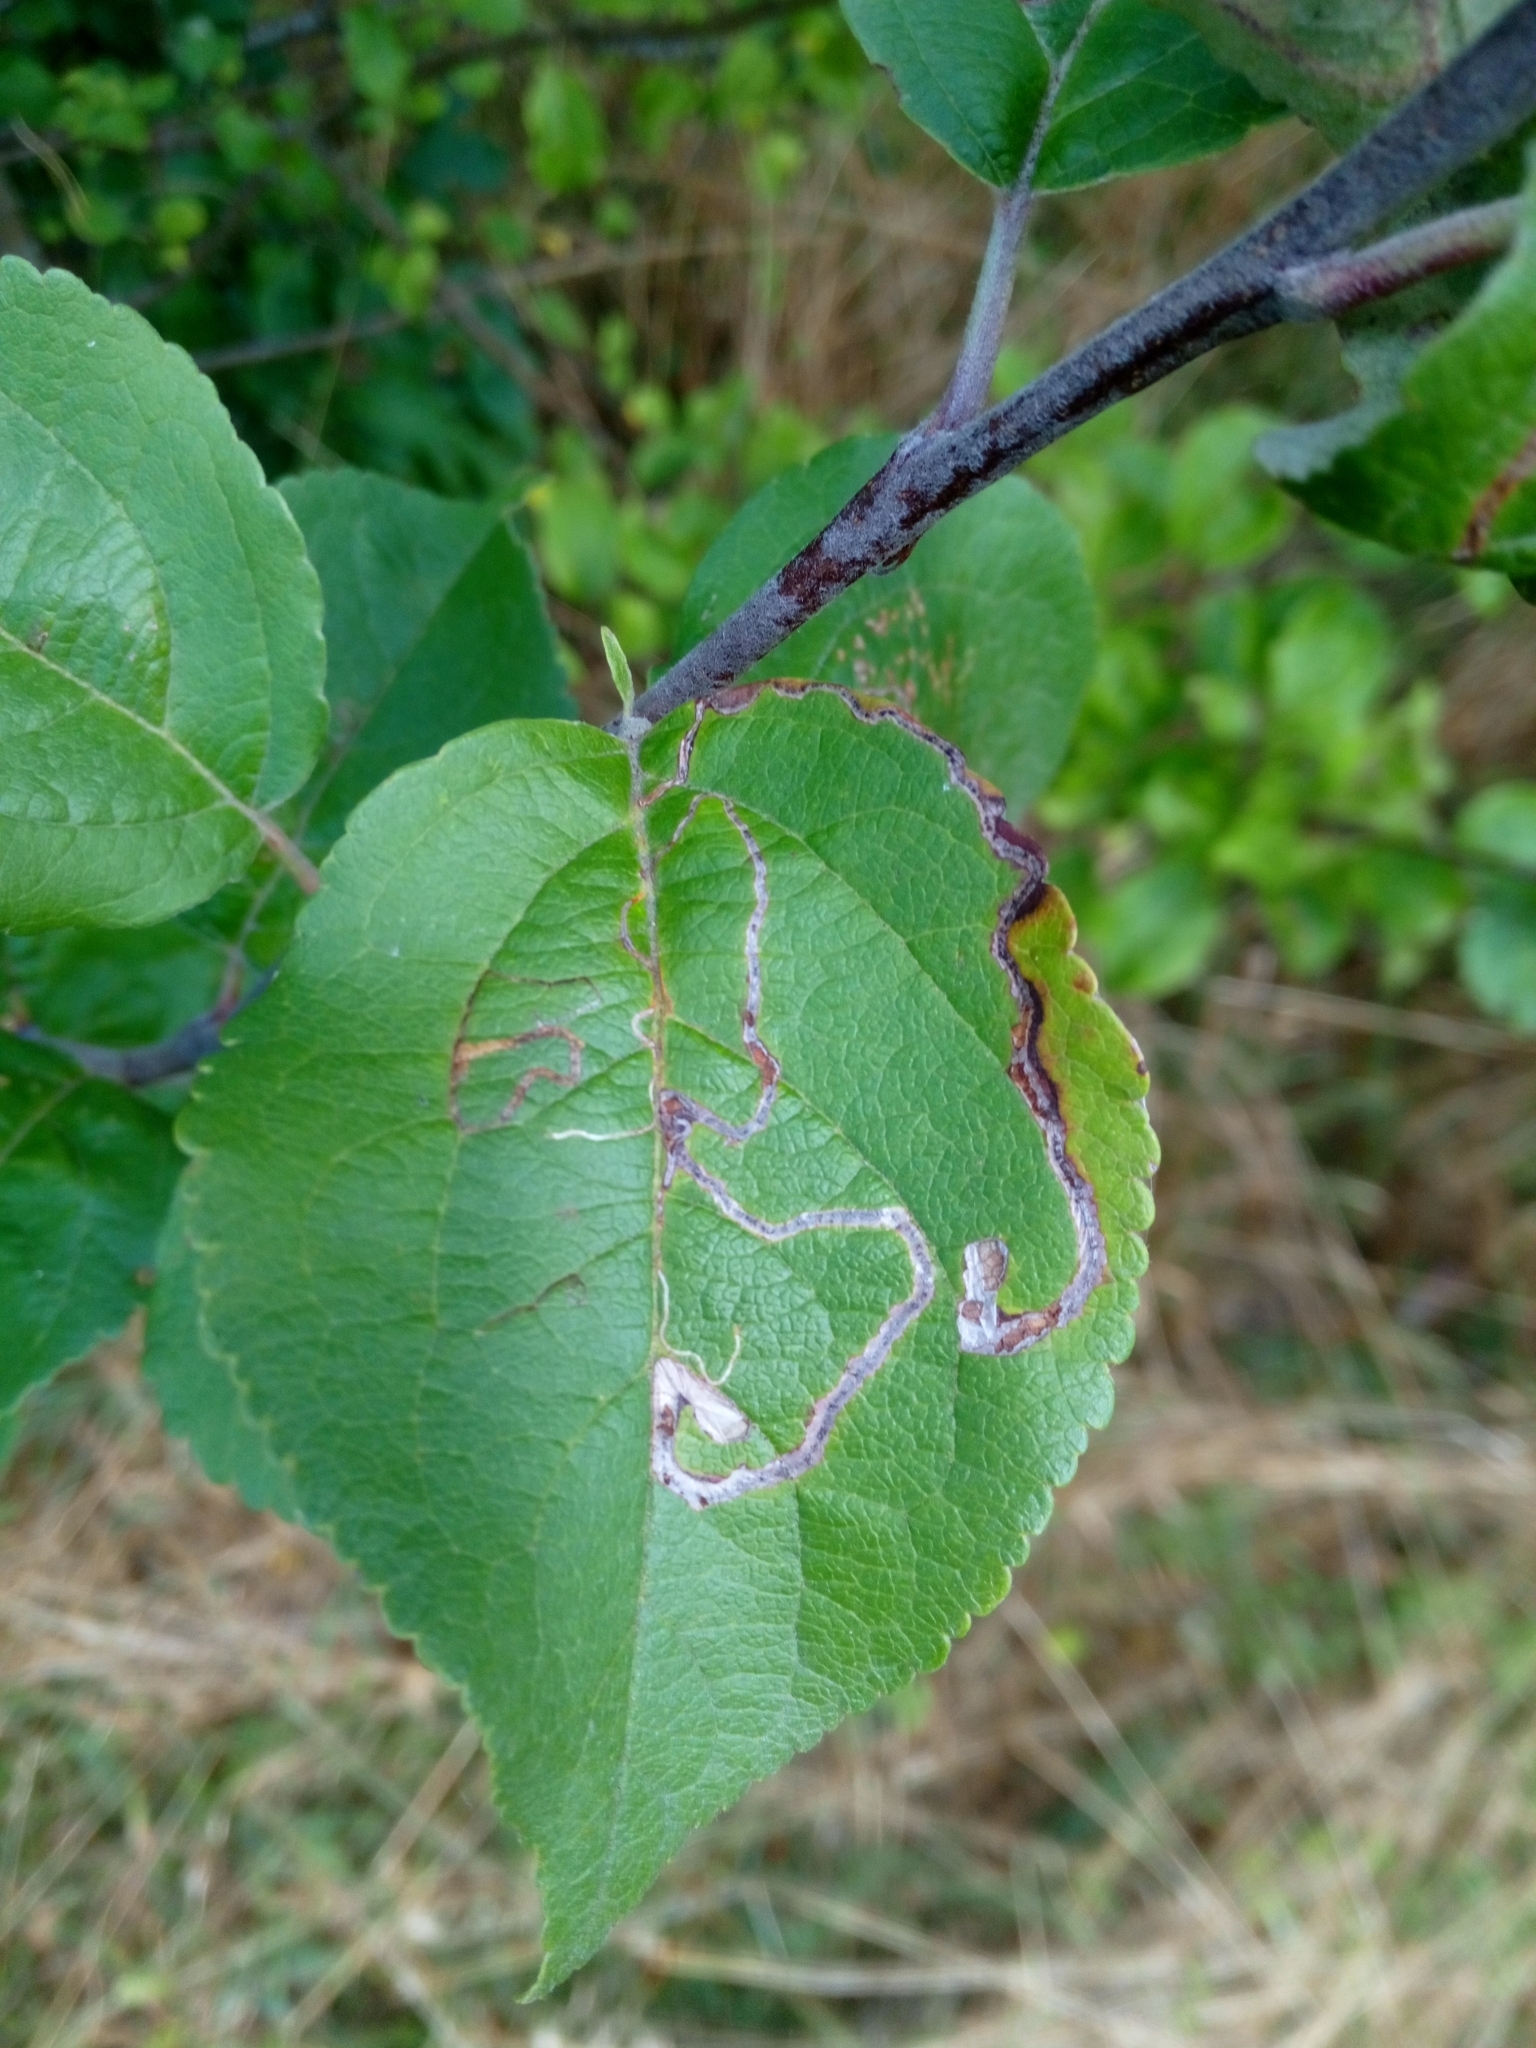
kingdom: Animalia
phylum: Arthropoda
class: Insecta
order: Lepidoptera
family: Lyonetiidae
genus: Lyonetia
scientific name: Lyonetia clerkella
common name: Apple leaf miner
